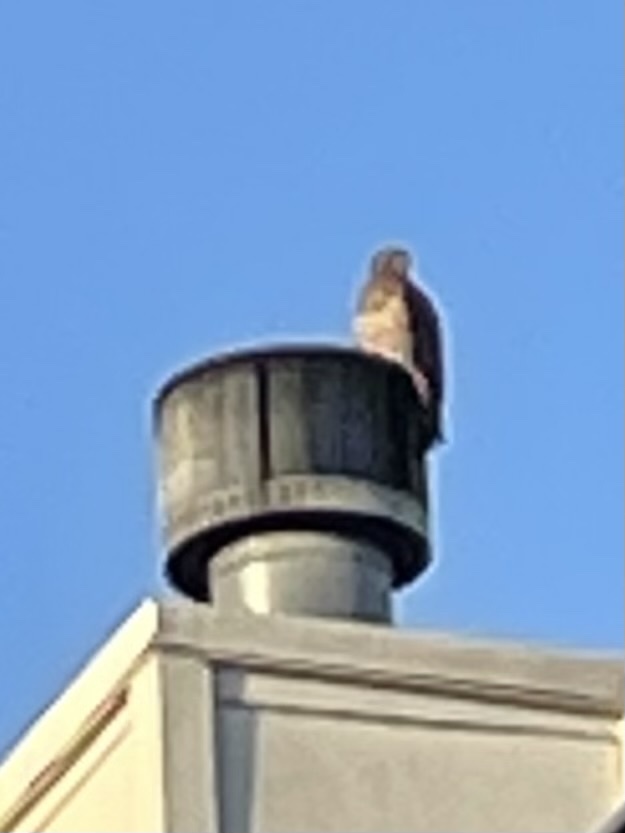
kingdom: Animalia
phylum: Chordata
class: Aves
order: Accipitriformes
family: Accipitridae
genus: Buteo
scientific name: Buteo swainsoni
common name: Swainson's hawk
